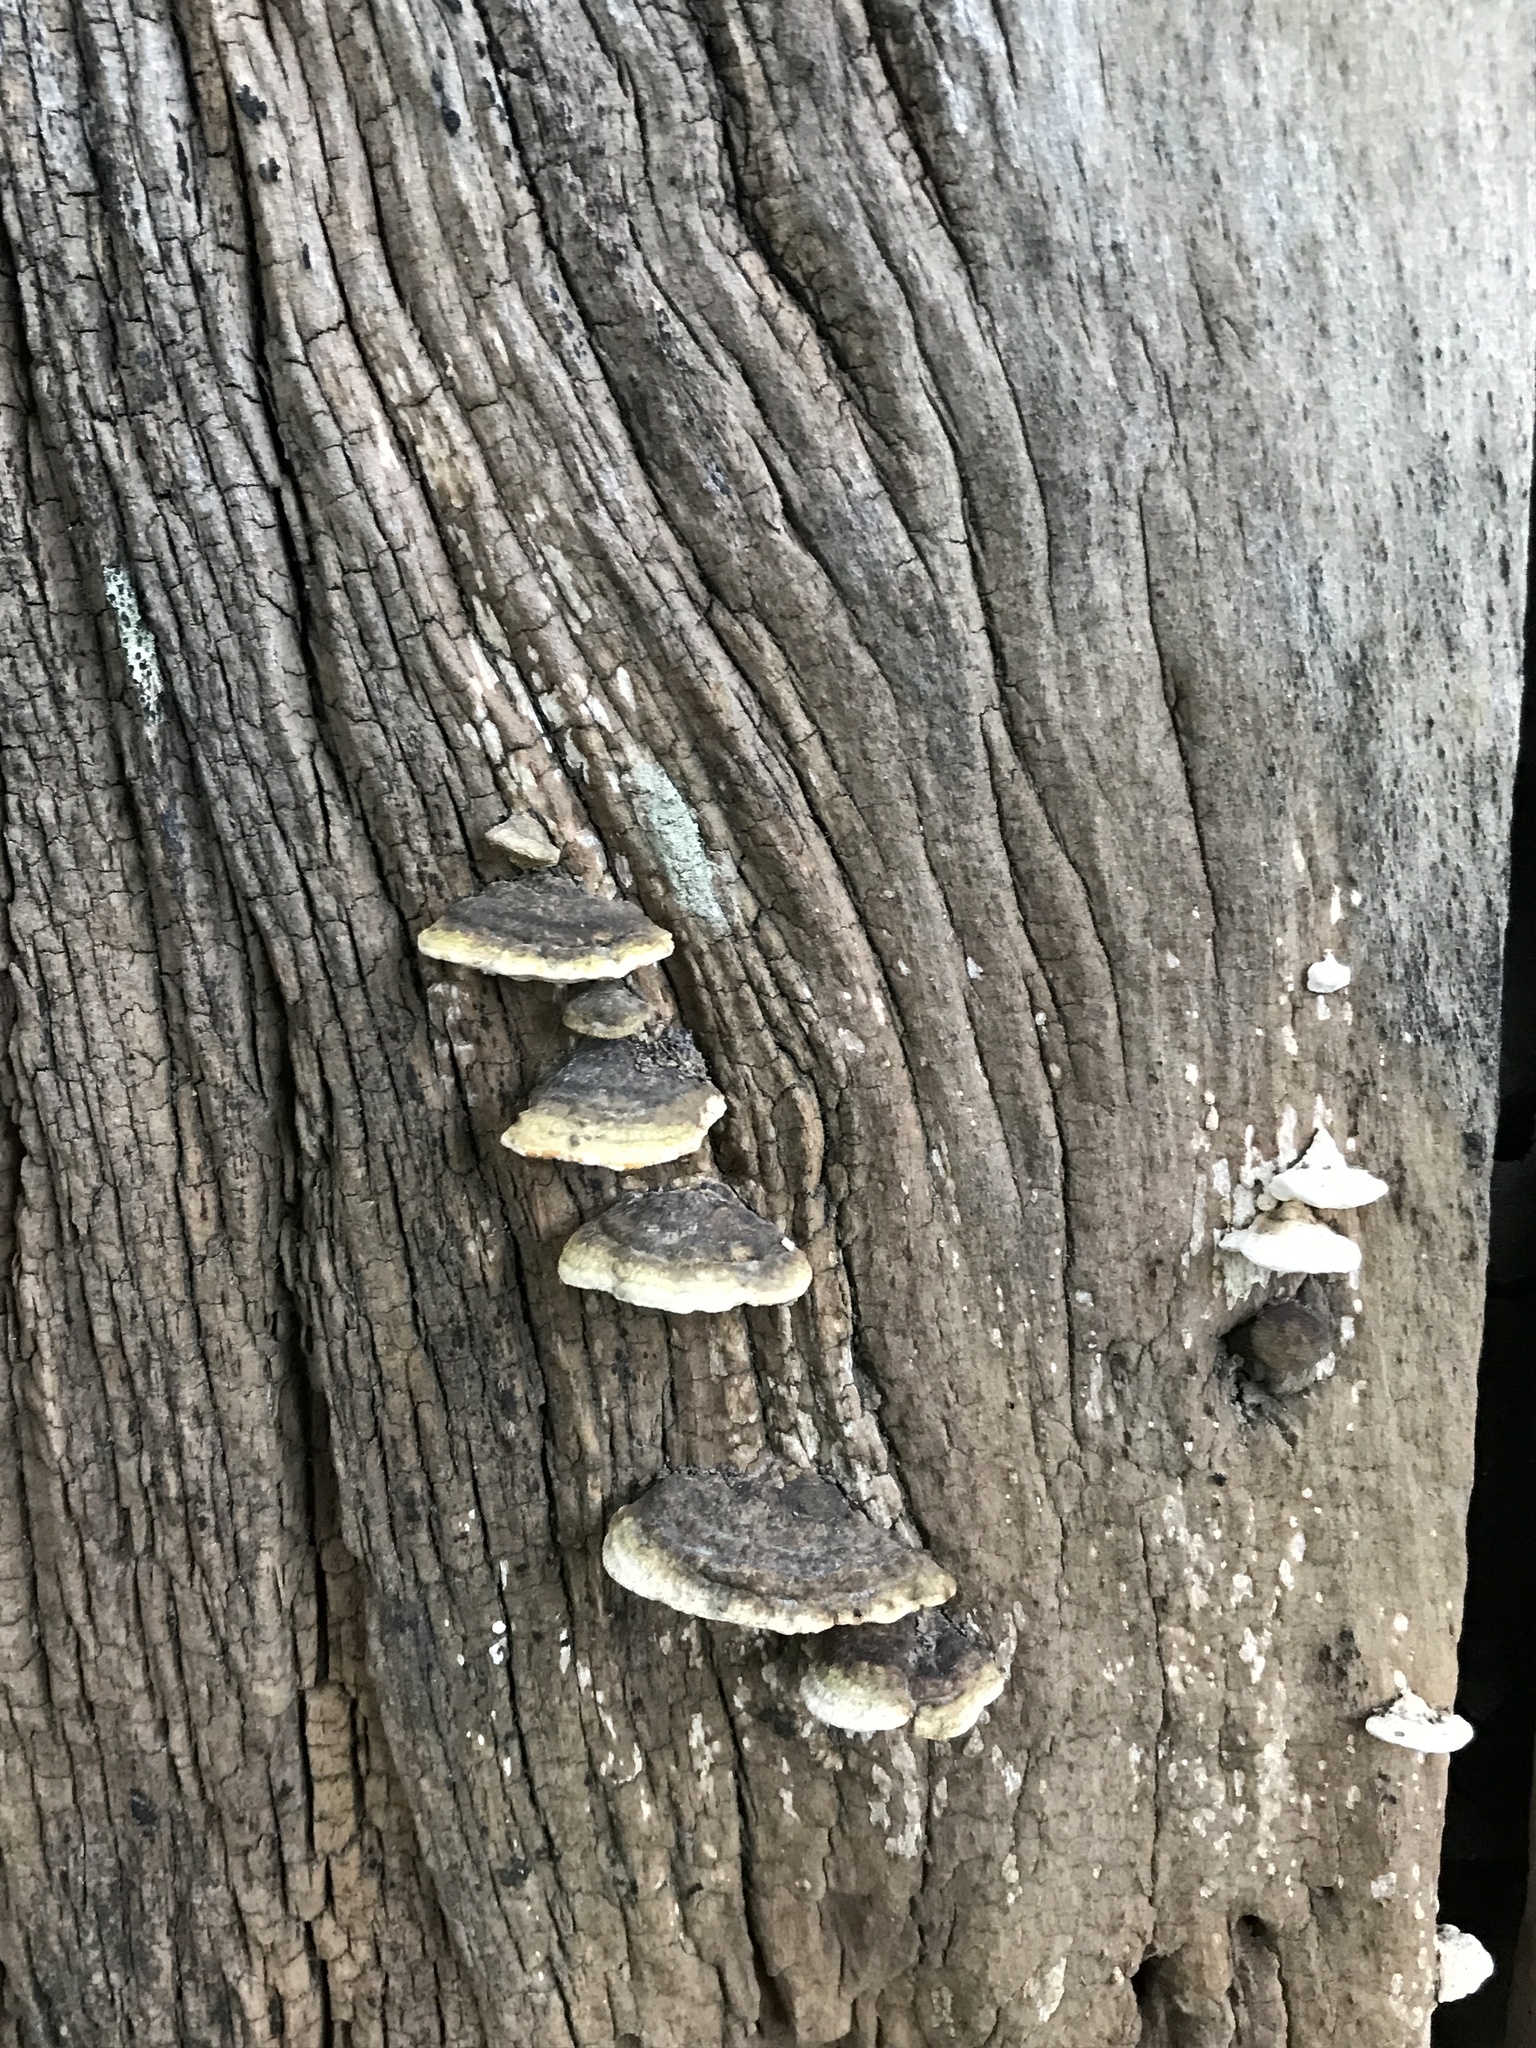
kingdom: Fungi
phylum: Basidiomycota
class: Agaricomycetes
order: Polyporales
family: Polyporaceae
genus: Perenniporia
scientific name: Perenniporia ohiensis
